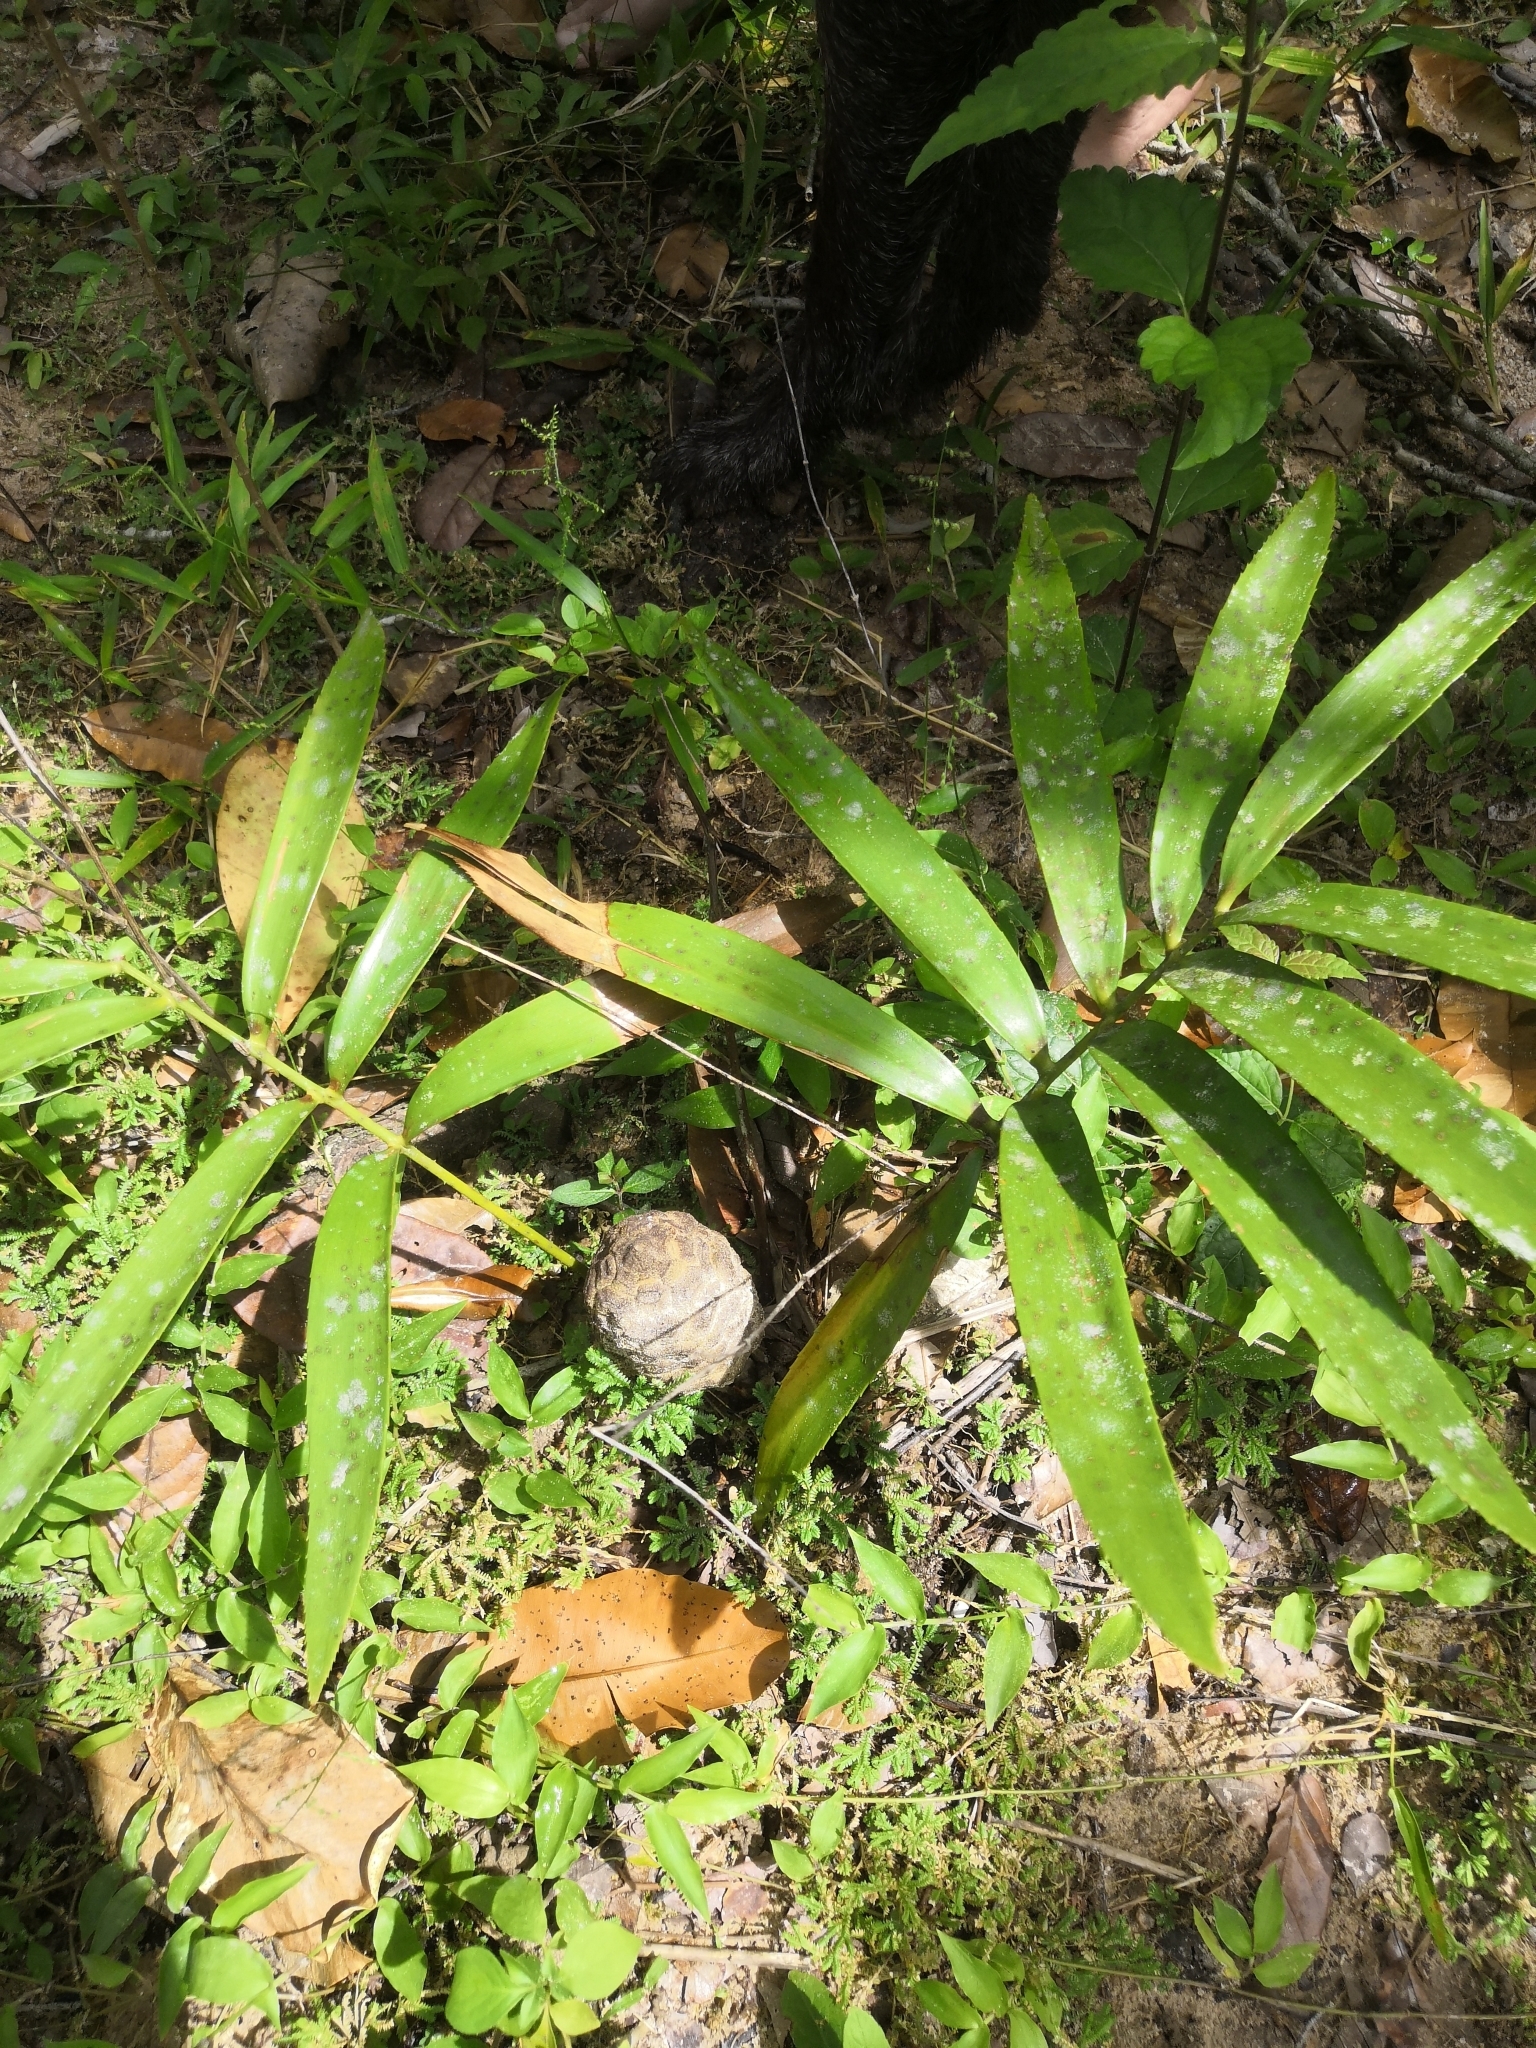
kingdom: Plantae
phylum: Tracheophyta
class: Cycadopsida
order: Cycadales
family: Zamiaceae
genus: Zamia
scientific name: Zamia paucijuga
